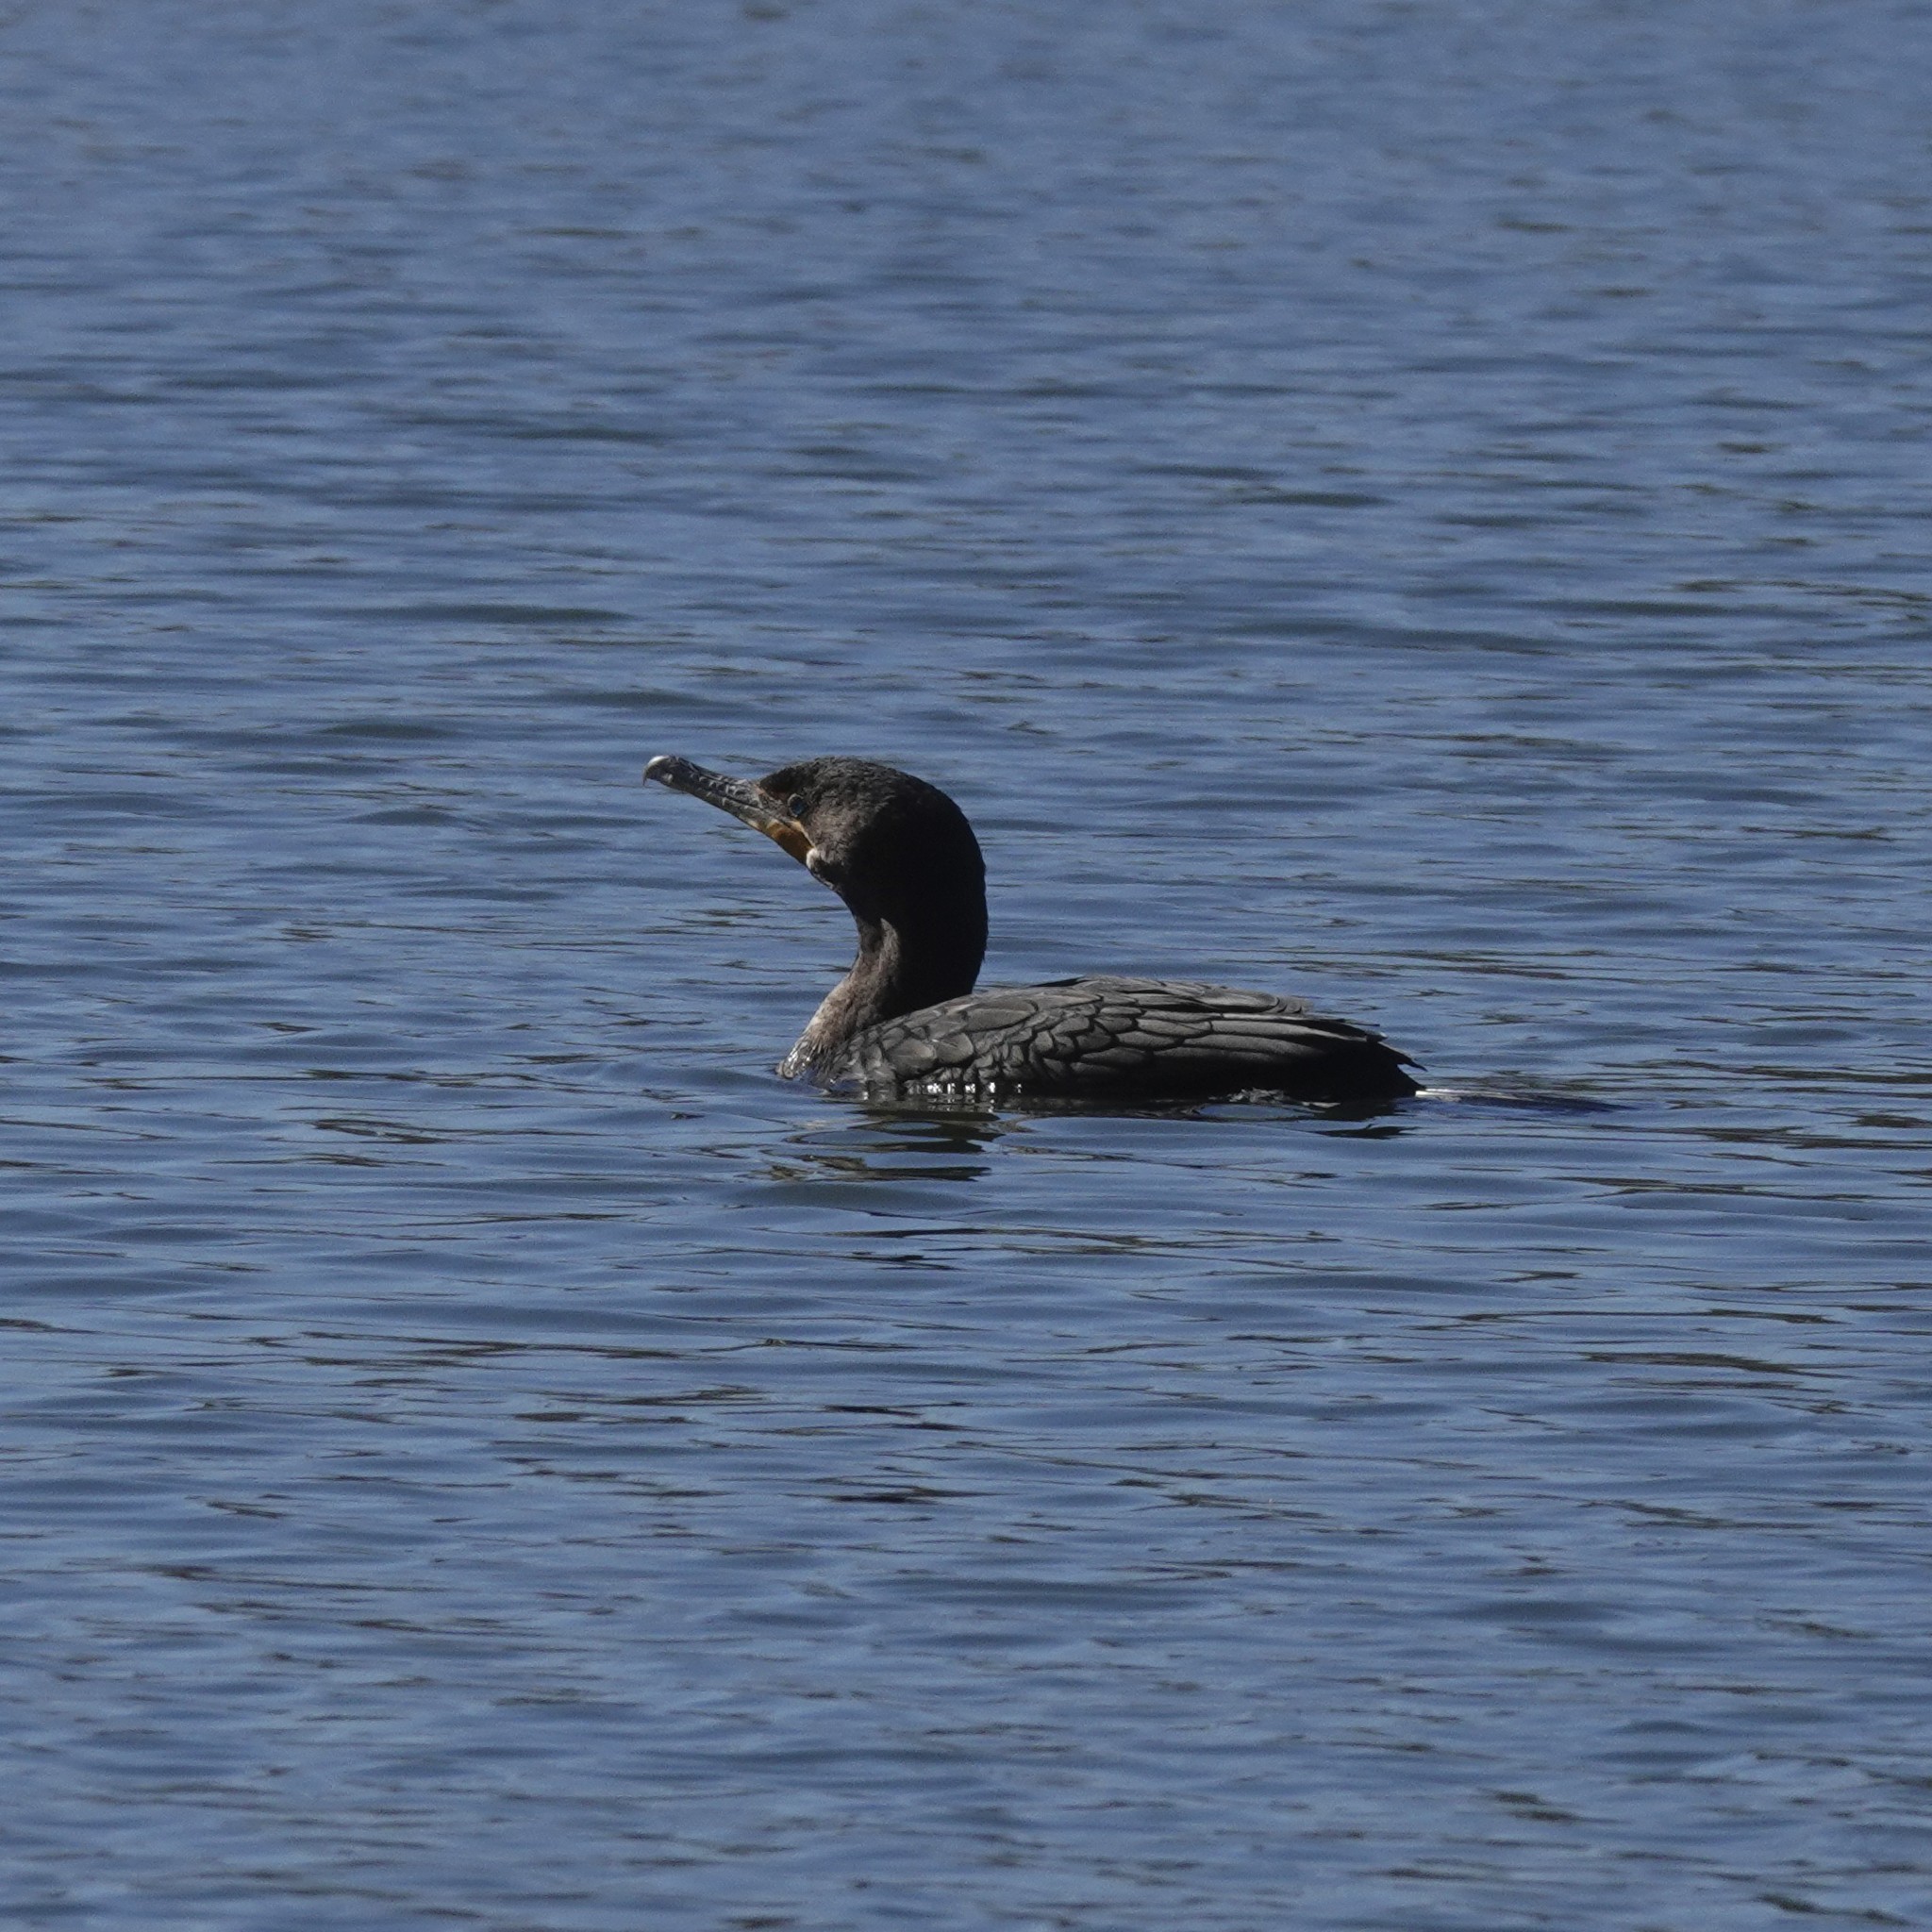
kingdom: Animalia
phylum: Chordata
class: Aves
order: Suliformes
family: Phalacrocoracidae
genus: Phalacrocorax
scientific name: Phalacrocorax auritus
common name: Double-crested cormorant
